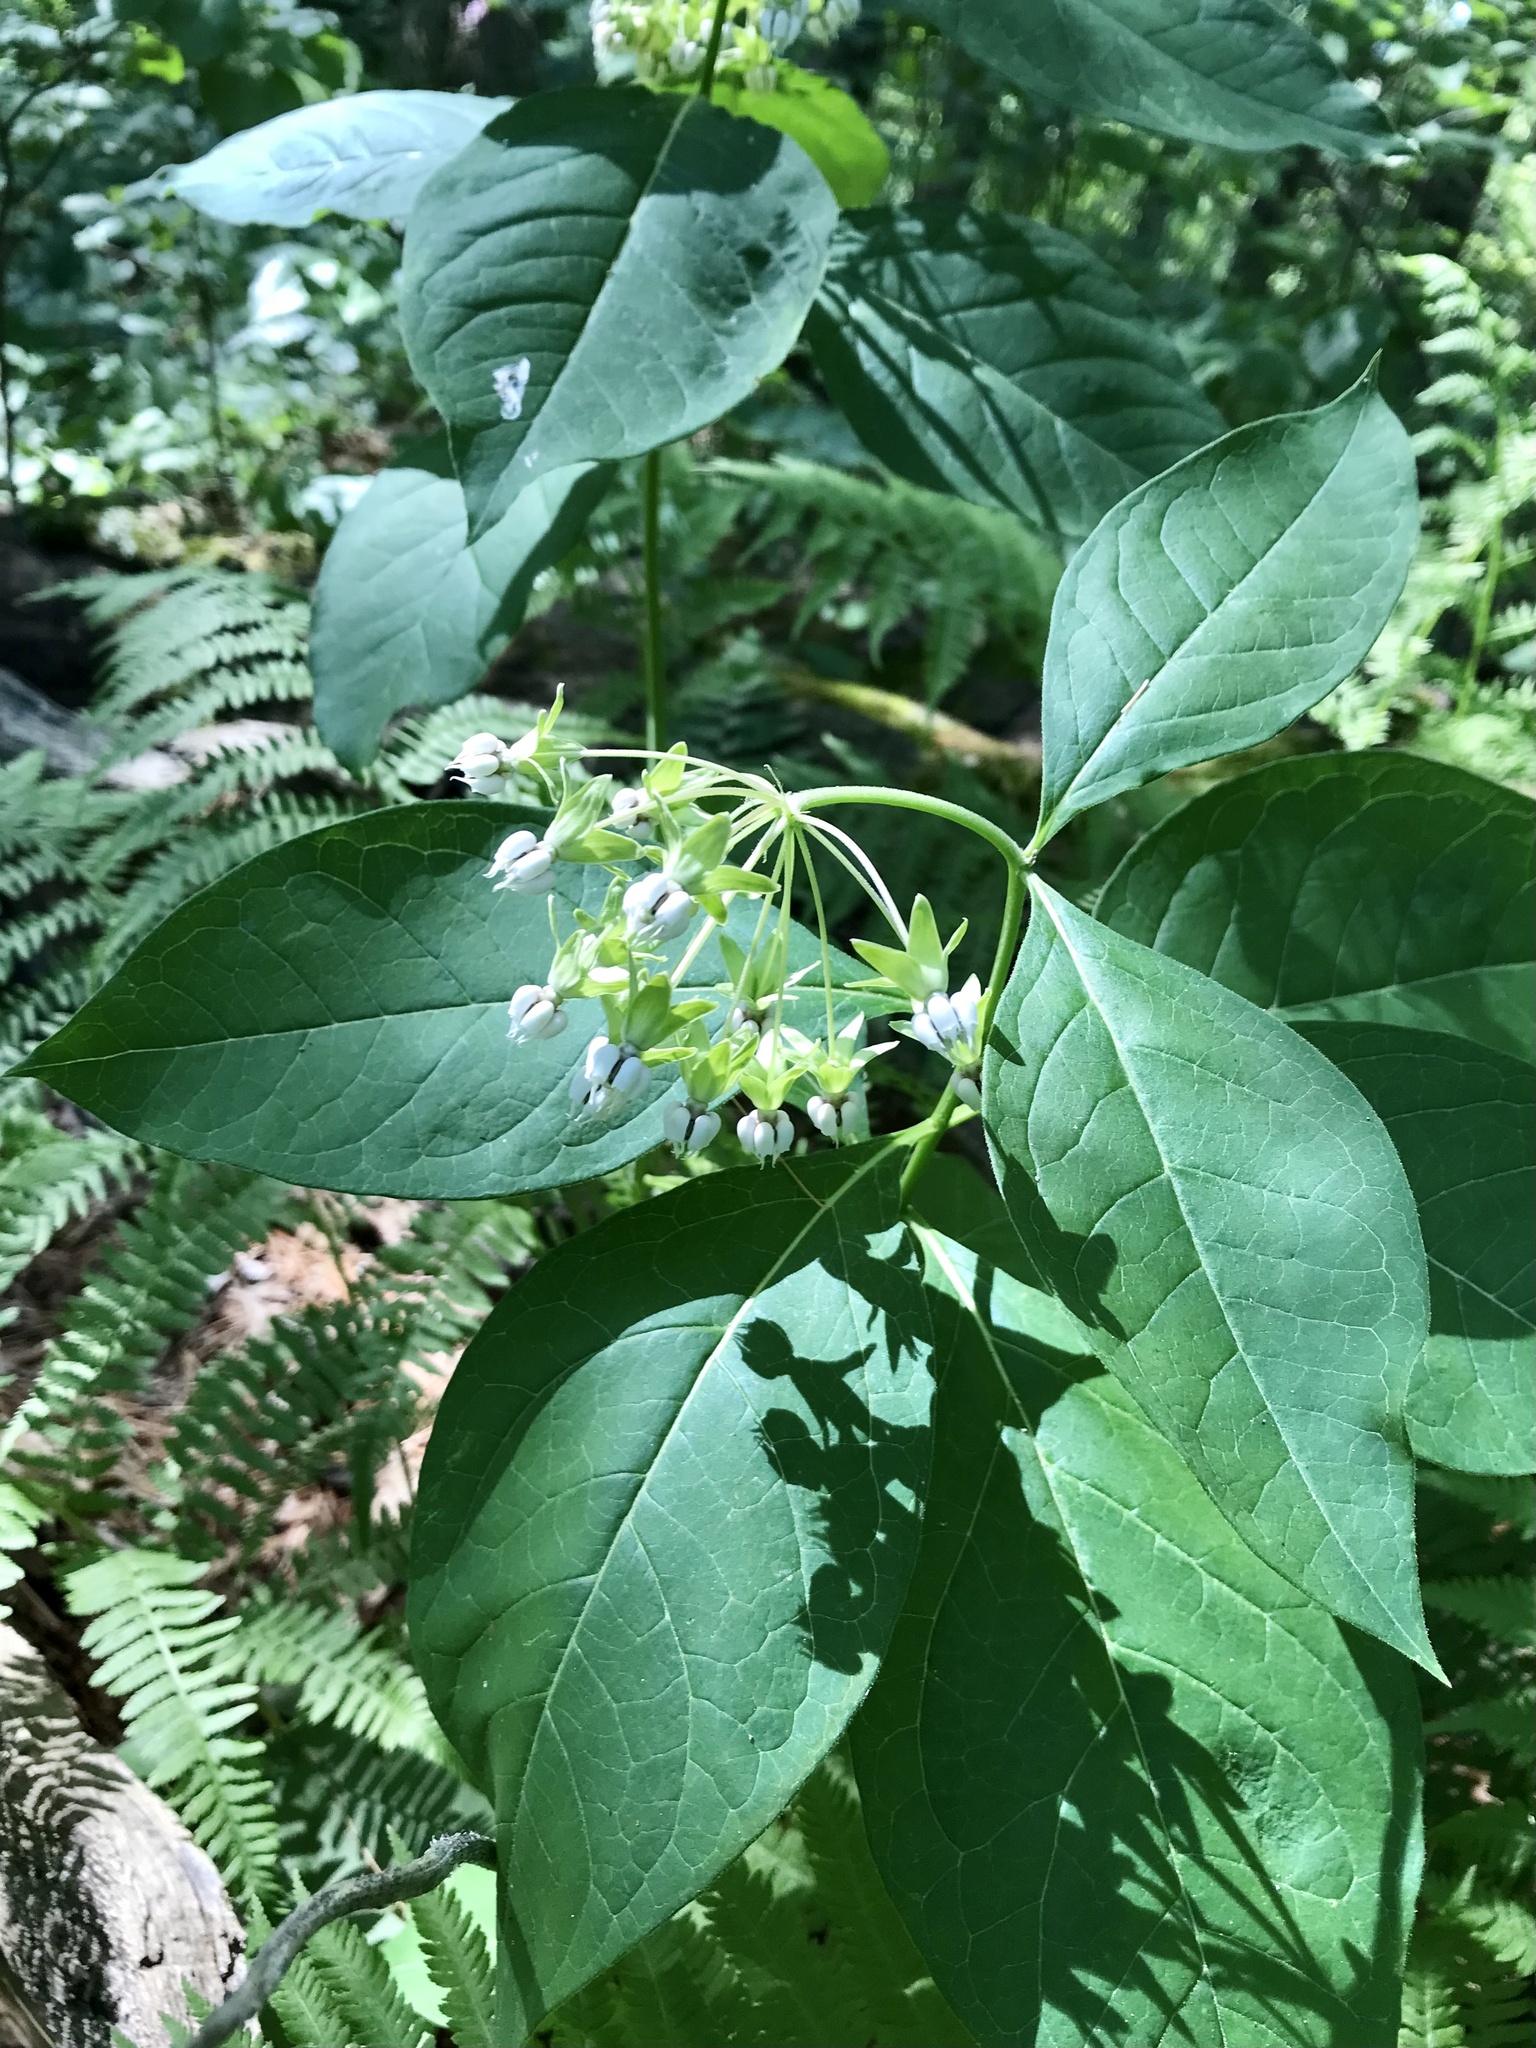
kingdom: Plantae
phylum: Tracheophyta
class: Magnoliopsida
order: Gentianales
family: Apocynaceae
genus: Asclepias
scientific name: Asclepias exaltata
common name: Poke milkweed
